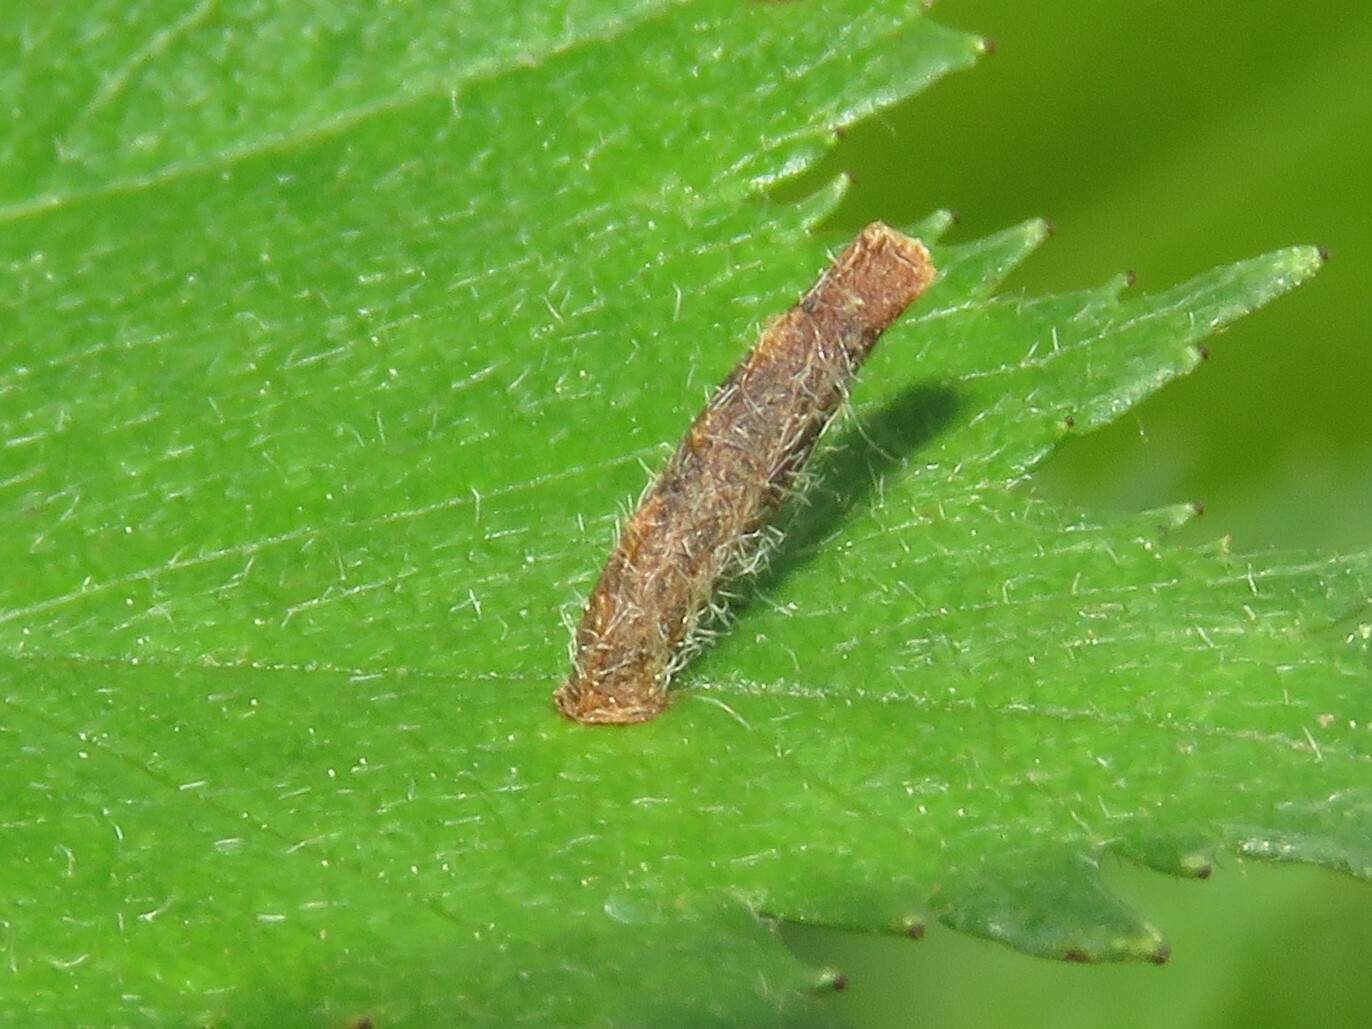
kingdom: Animalia
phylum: Arthropoda
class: Insecta
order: Lepidoptera
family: Coleophoridae
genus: Coleophora
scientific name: Coleophora spinella
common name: Apple & plum case-bearer
